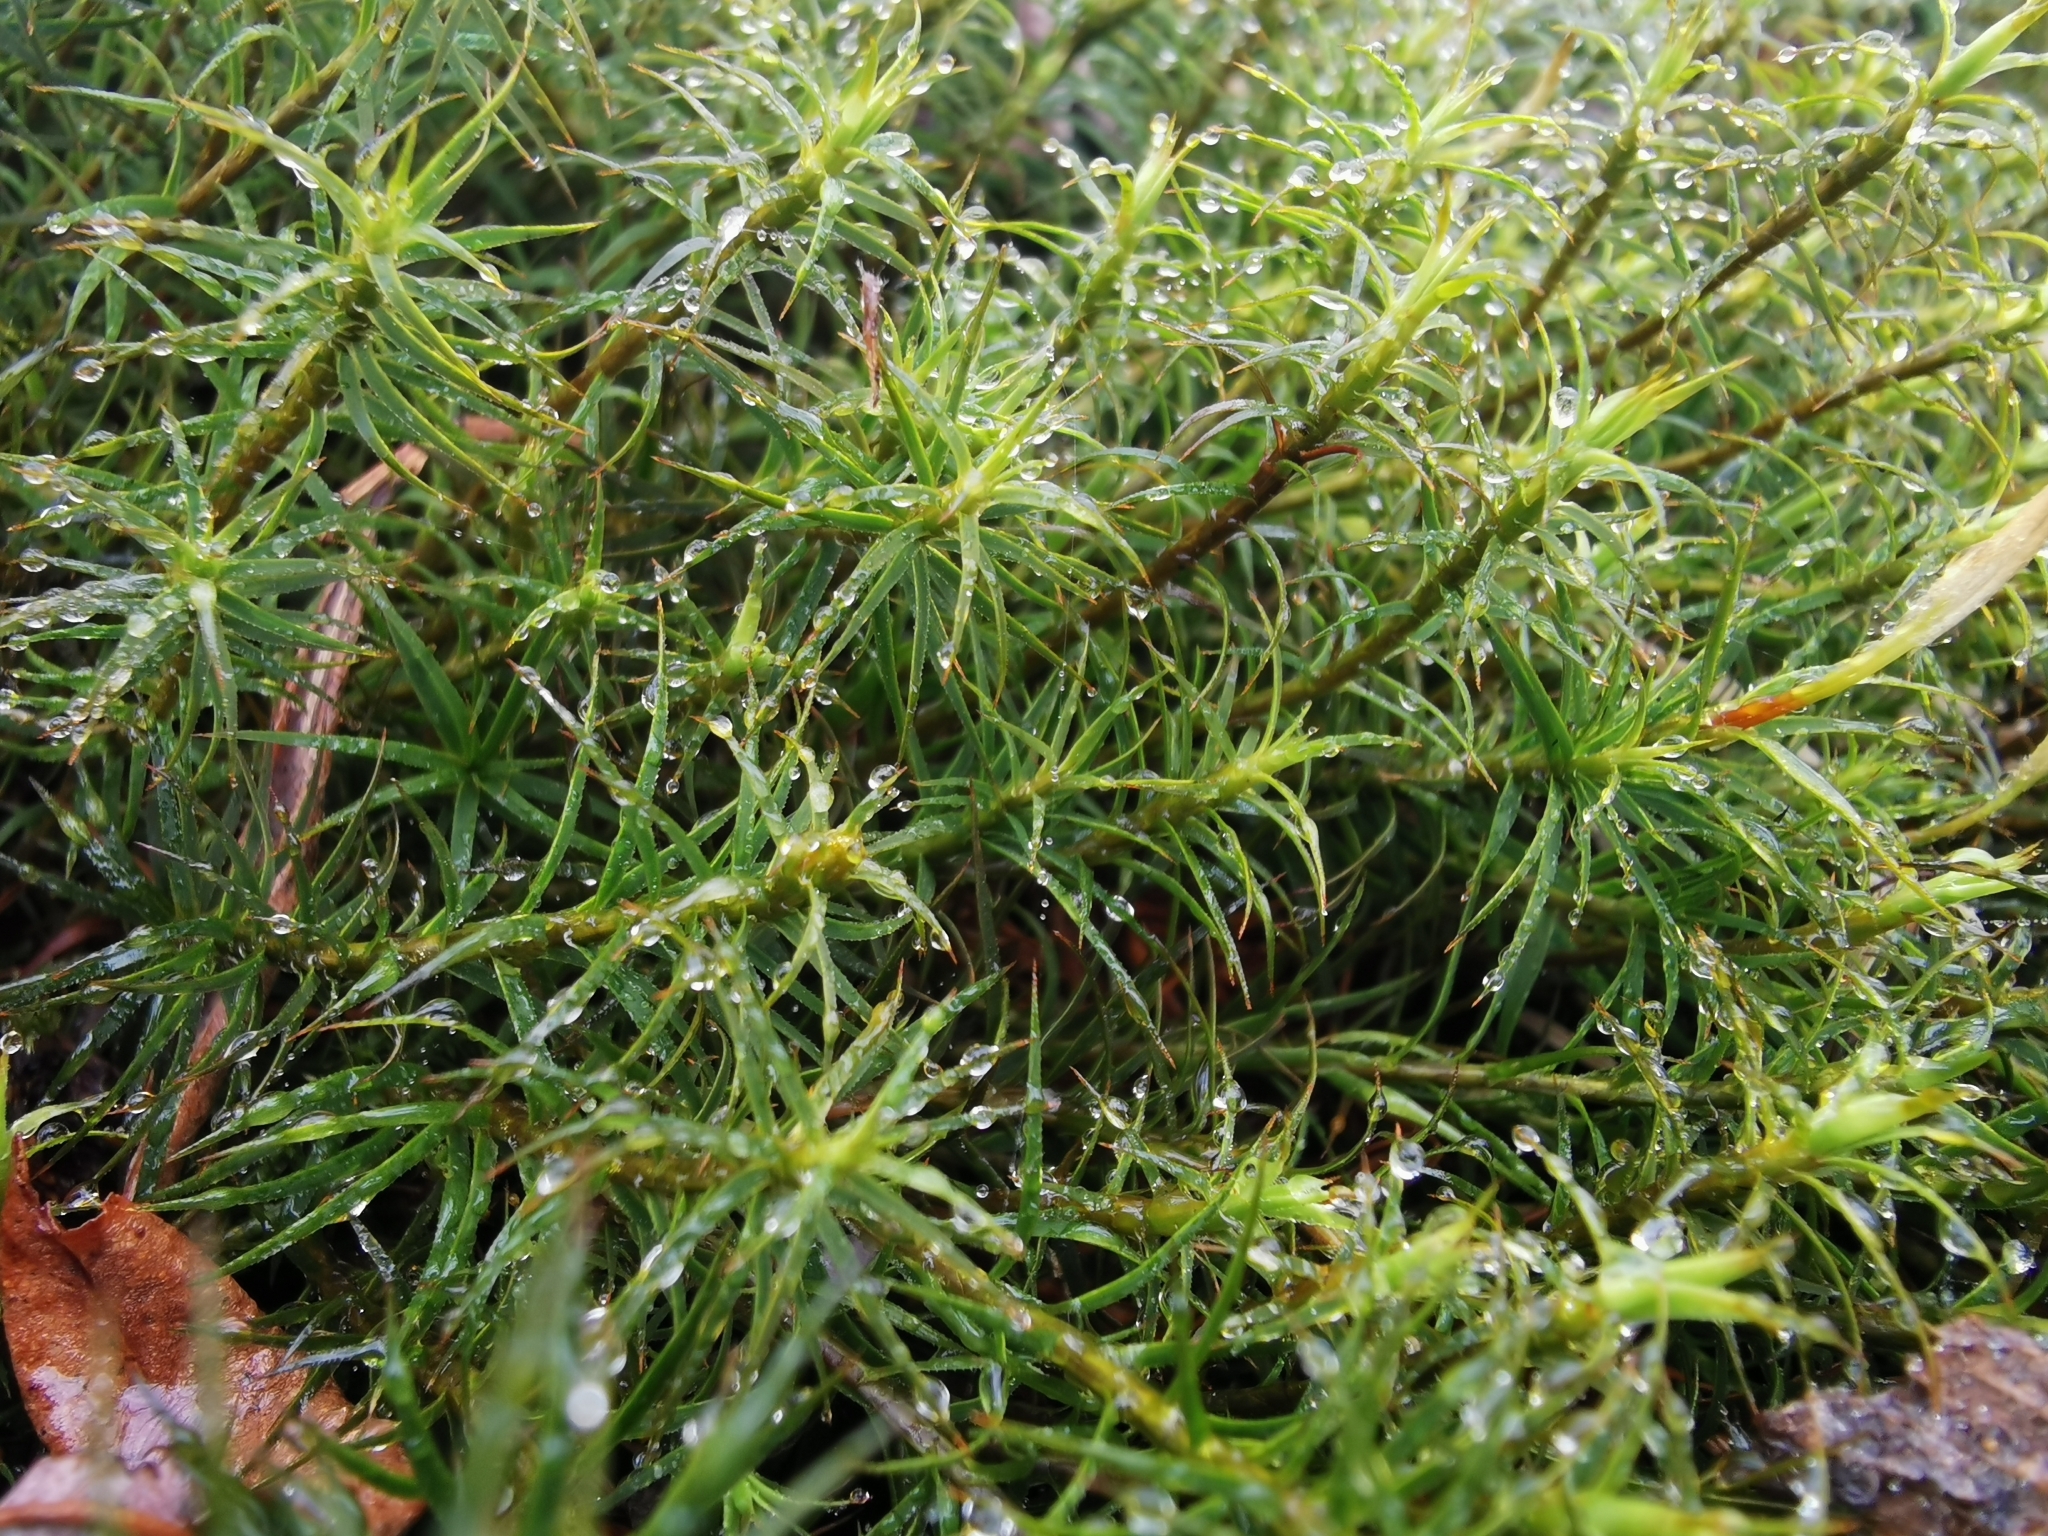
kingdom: Plantae
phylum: Bryophyta
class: Polytrichopsida
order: Polytrichales
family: Polytrichaceae
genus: Polytrichum
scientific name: Polytrichum commune
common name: Common haircap
